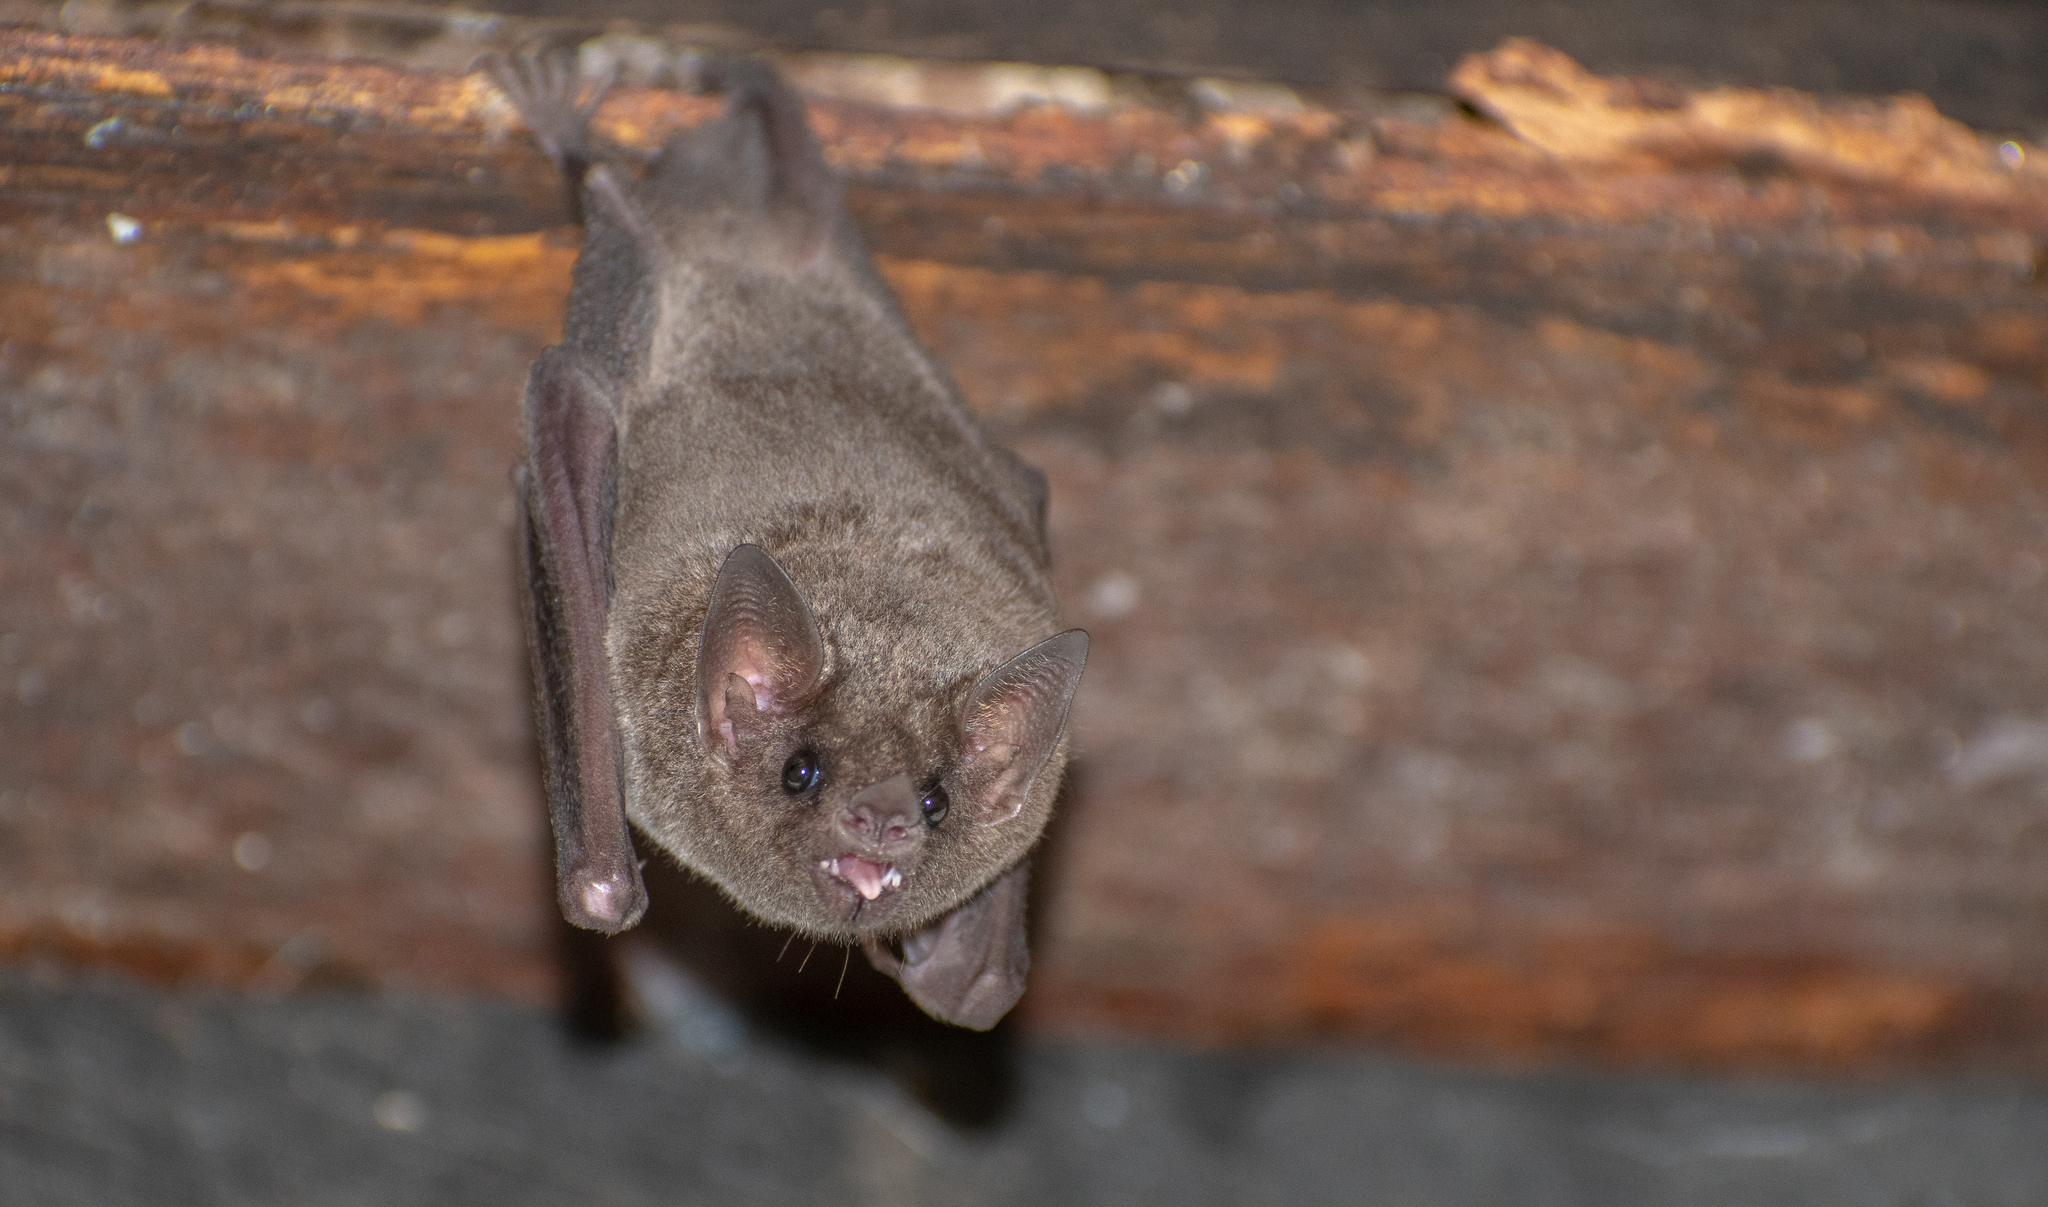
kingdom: Animalia
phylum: Chordata
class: Mammalia
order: Chiroptera
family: Phyllostomidae
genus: Glossophaga
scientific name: Glossophaga soricina
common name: Pallas's long-tongued bat
